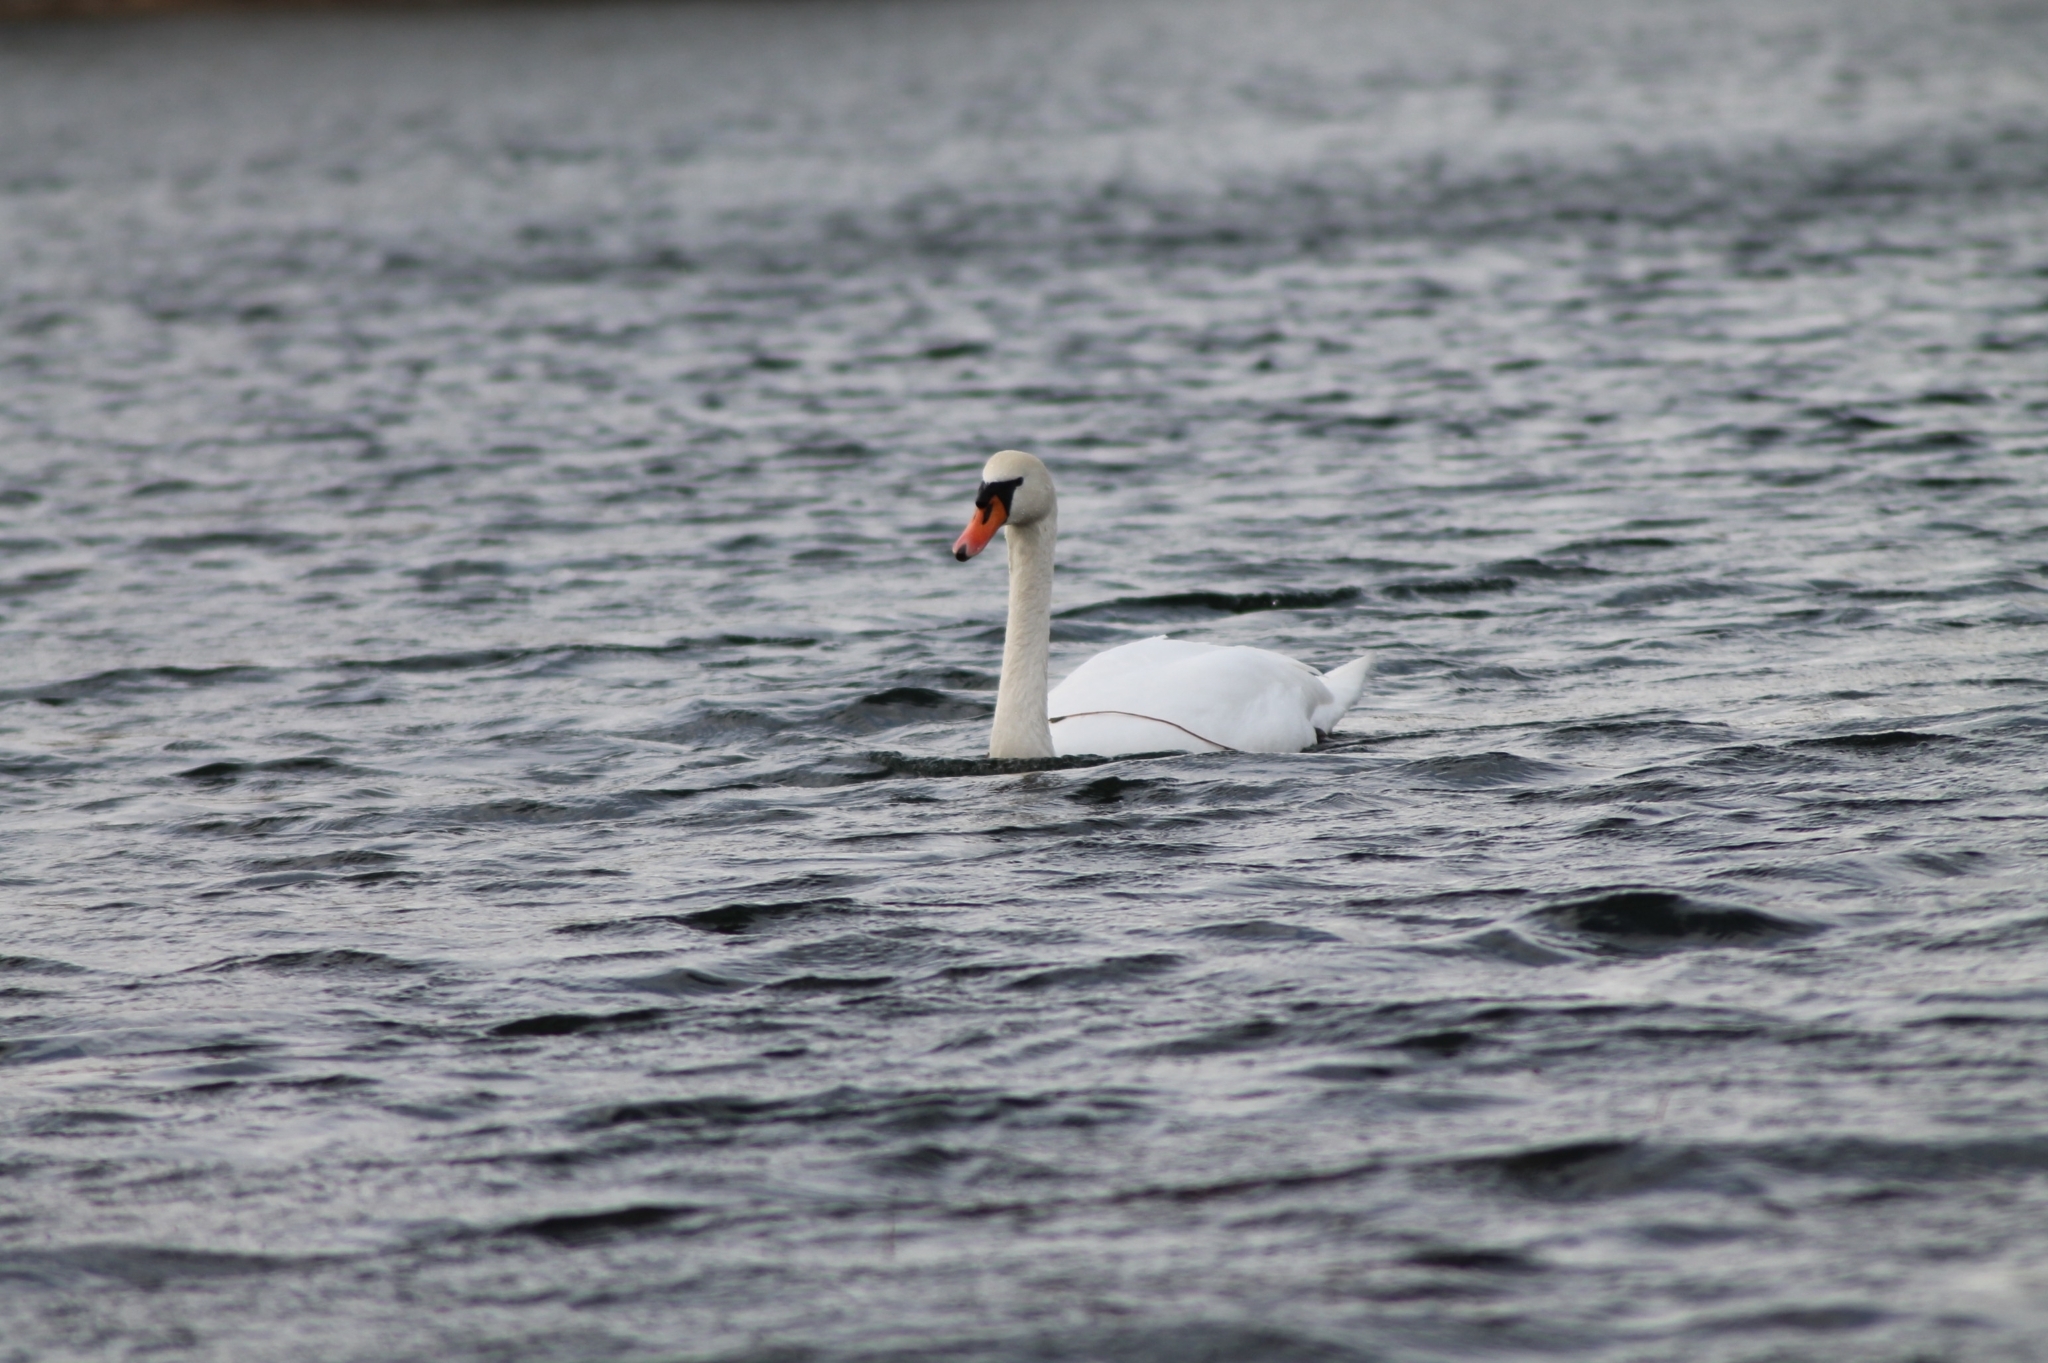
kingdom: Animalia
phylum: Chordata
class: Aves
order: Anseriformes
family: Anatidae
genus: Cygnus
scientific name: Cygnus olor
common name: Mute swan
